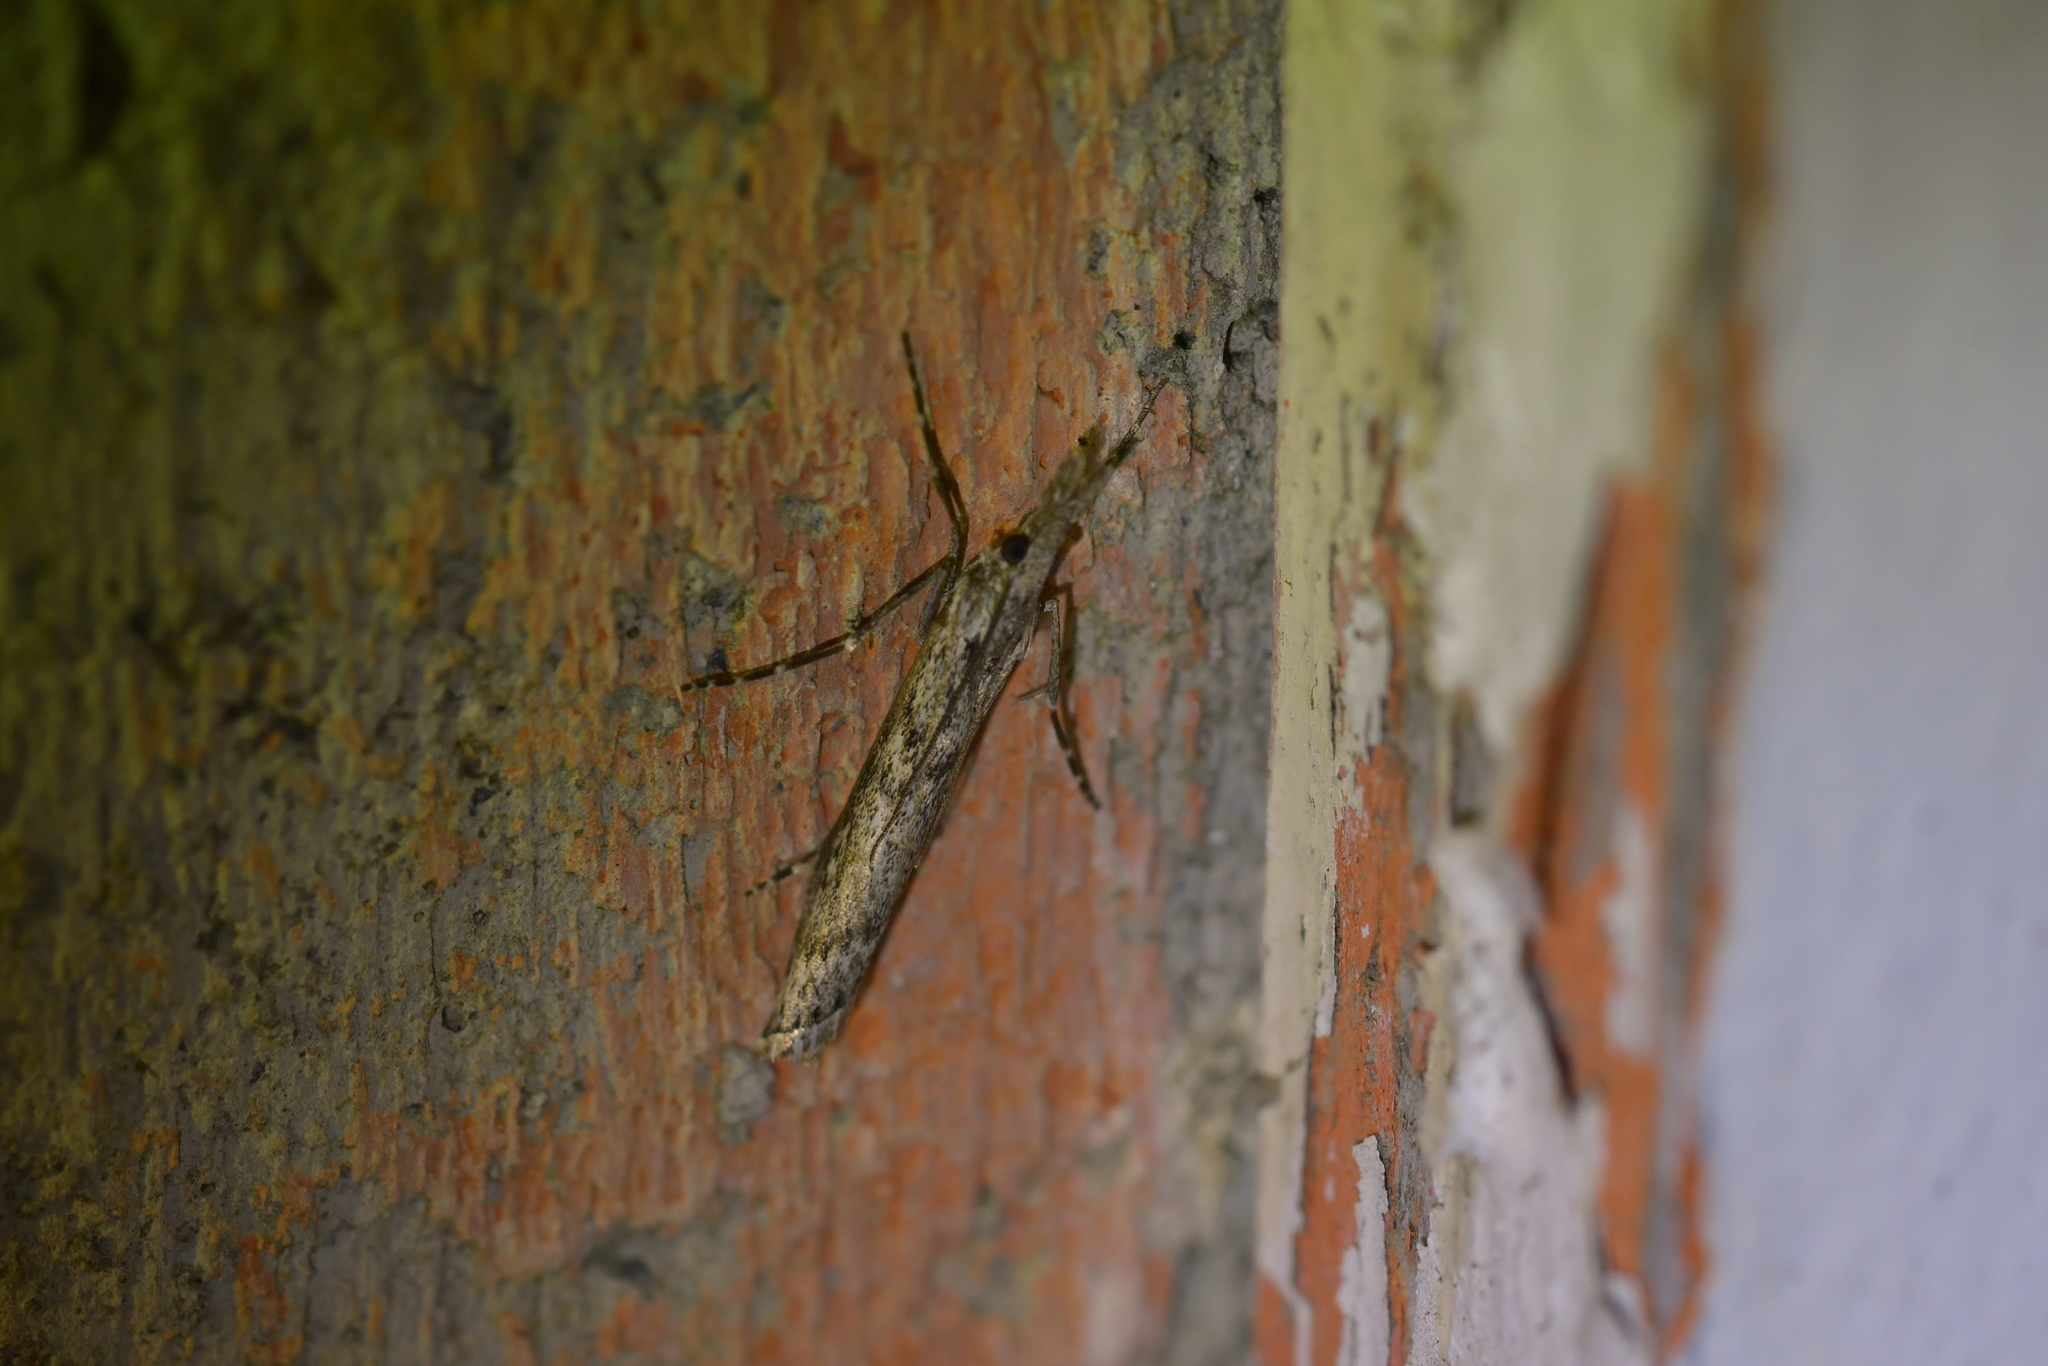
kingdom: Animalia
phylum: Arthropoda
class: Insecta
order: Lepidoptera
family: Crambidae
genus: Orocrambus
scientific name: Orocrambus cyclopicus
